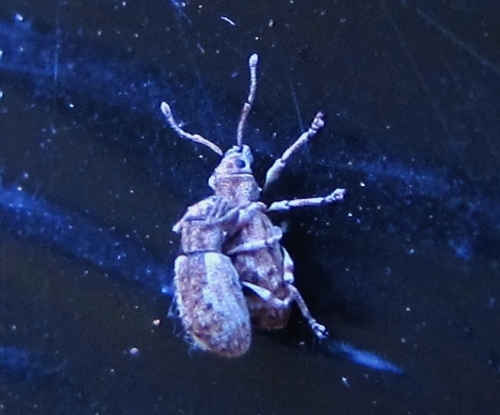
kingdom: Animalia
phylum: Arthropoda
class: Insecta
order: Coleoptera
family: Curculionidae
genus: Pseudoedophrys
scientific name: Pseudoedophrys hilleri
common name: Weevil
